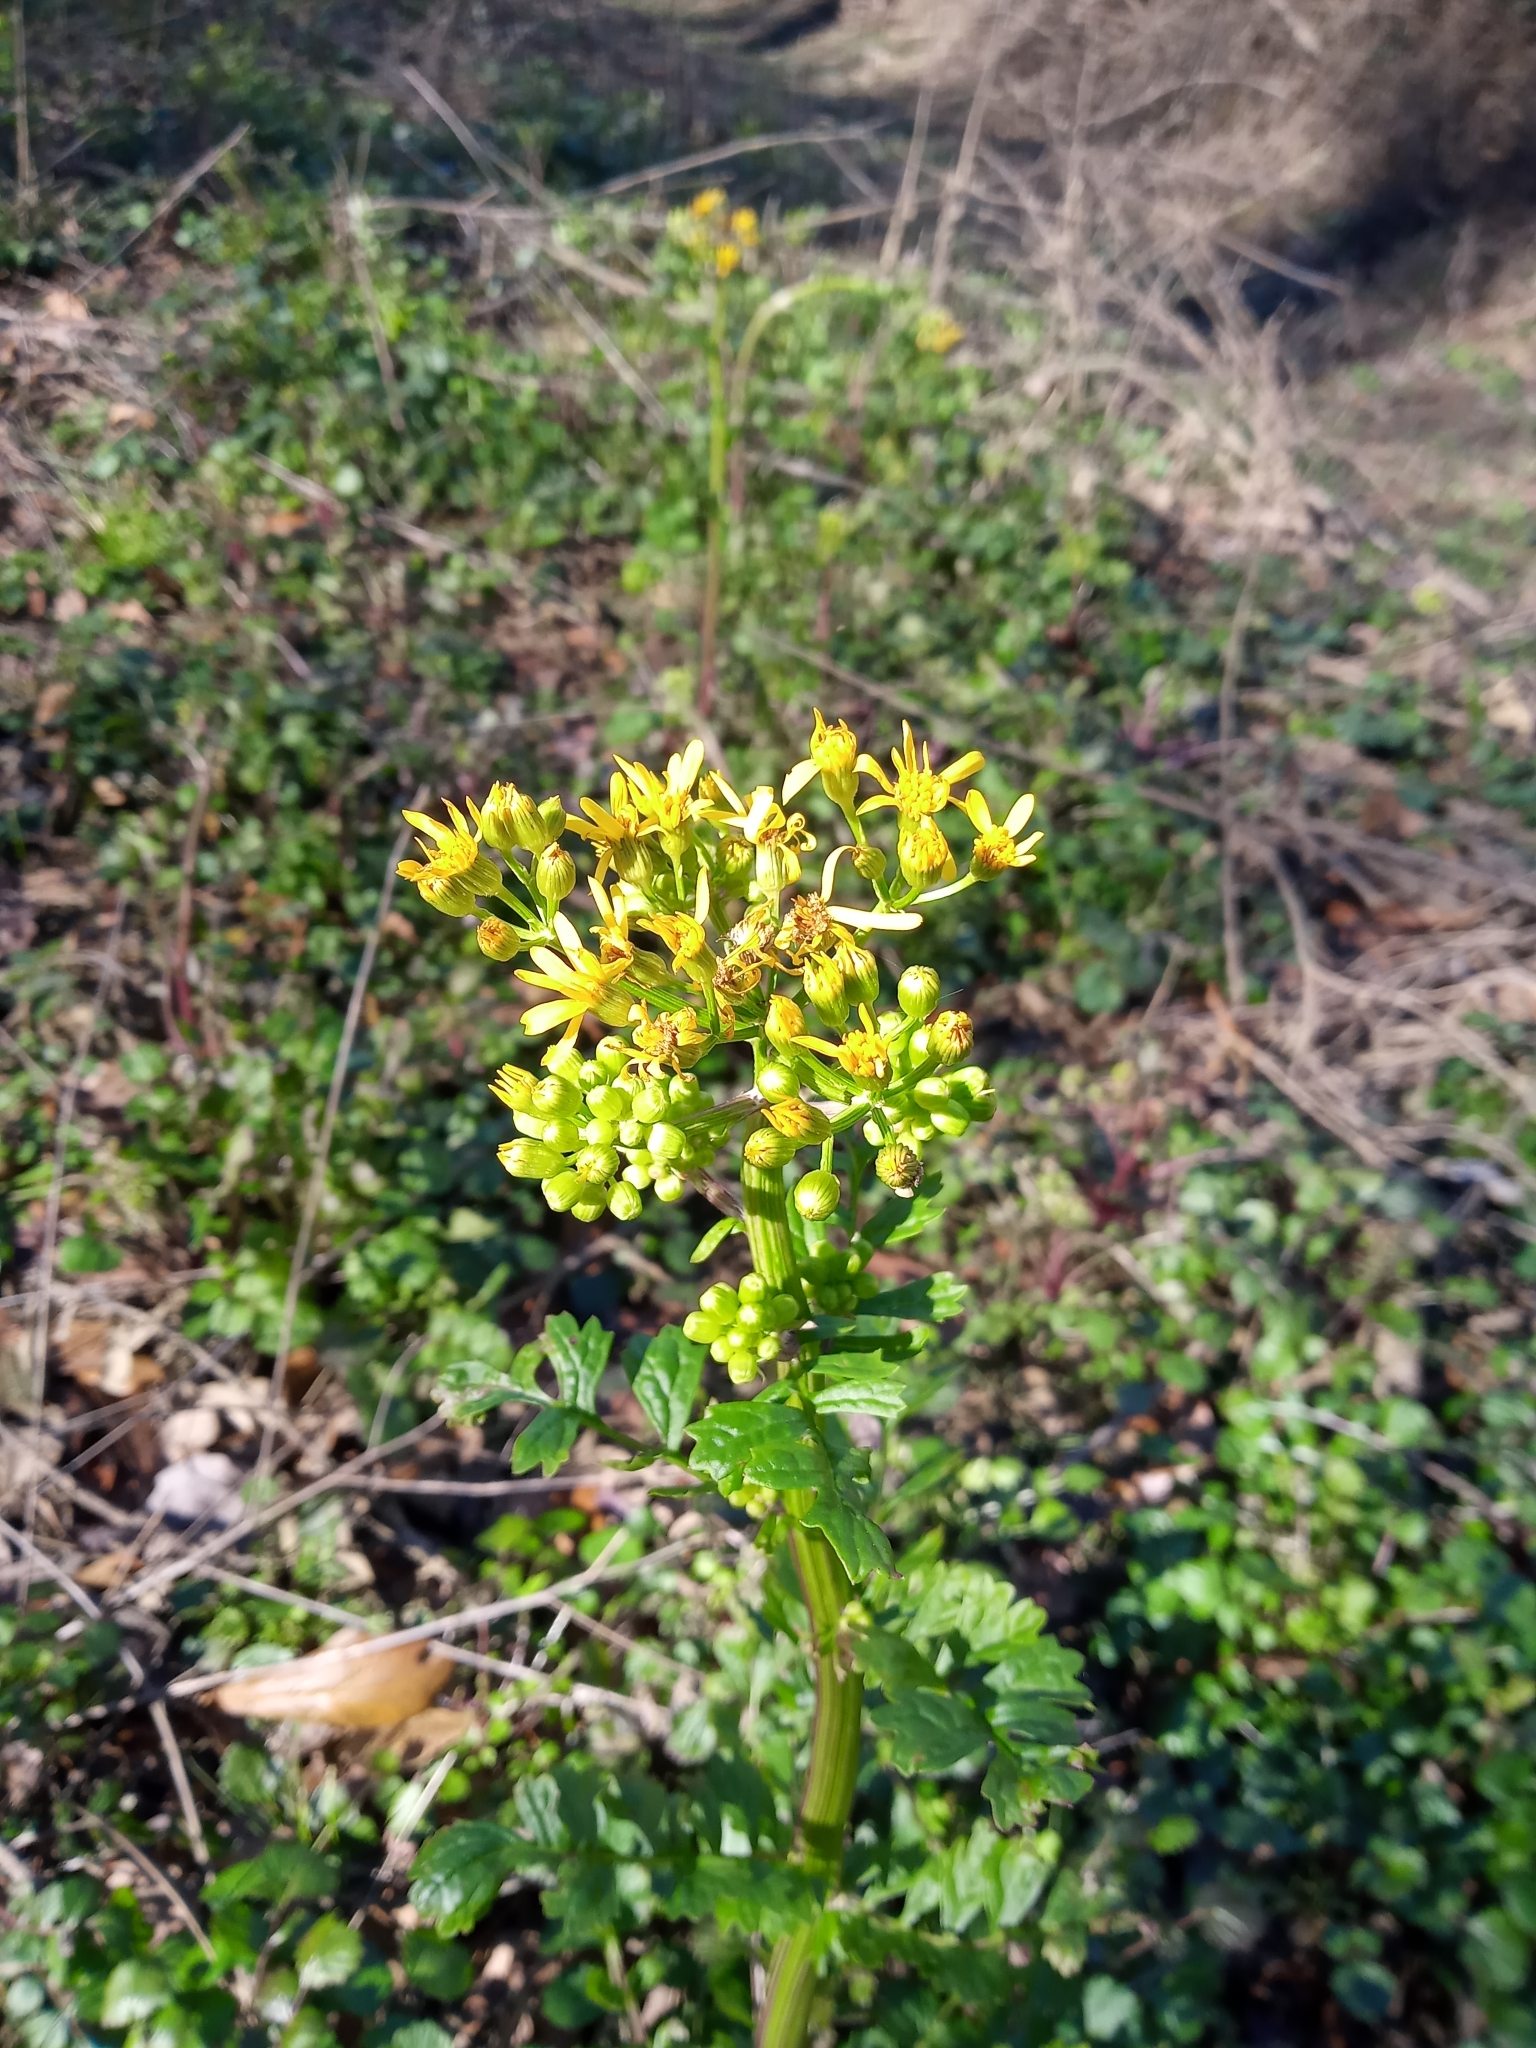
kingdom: Plantae
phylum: Tracheophyta
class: Magnoliopsida
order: Asterales
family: Asteraceae
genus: Packera
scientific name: Packera glabella
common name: Butterweed
